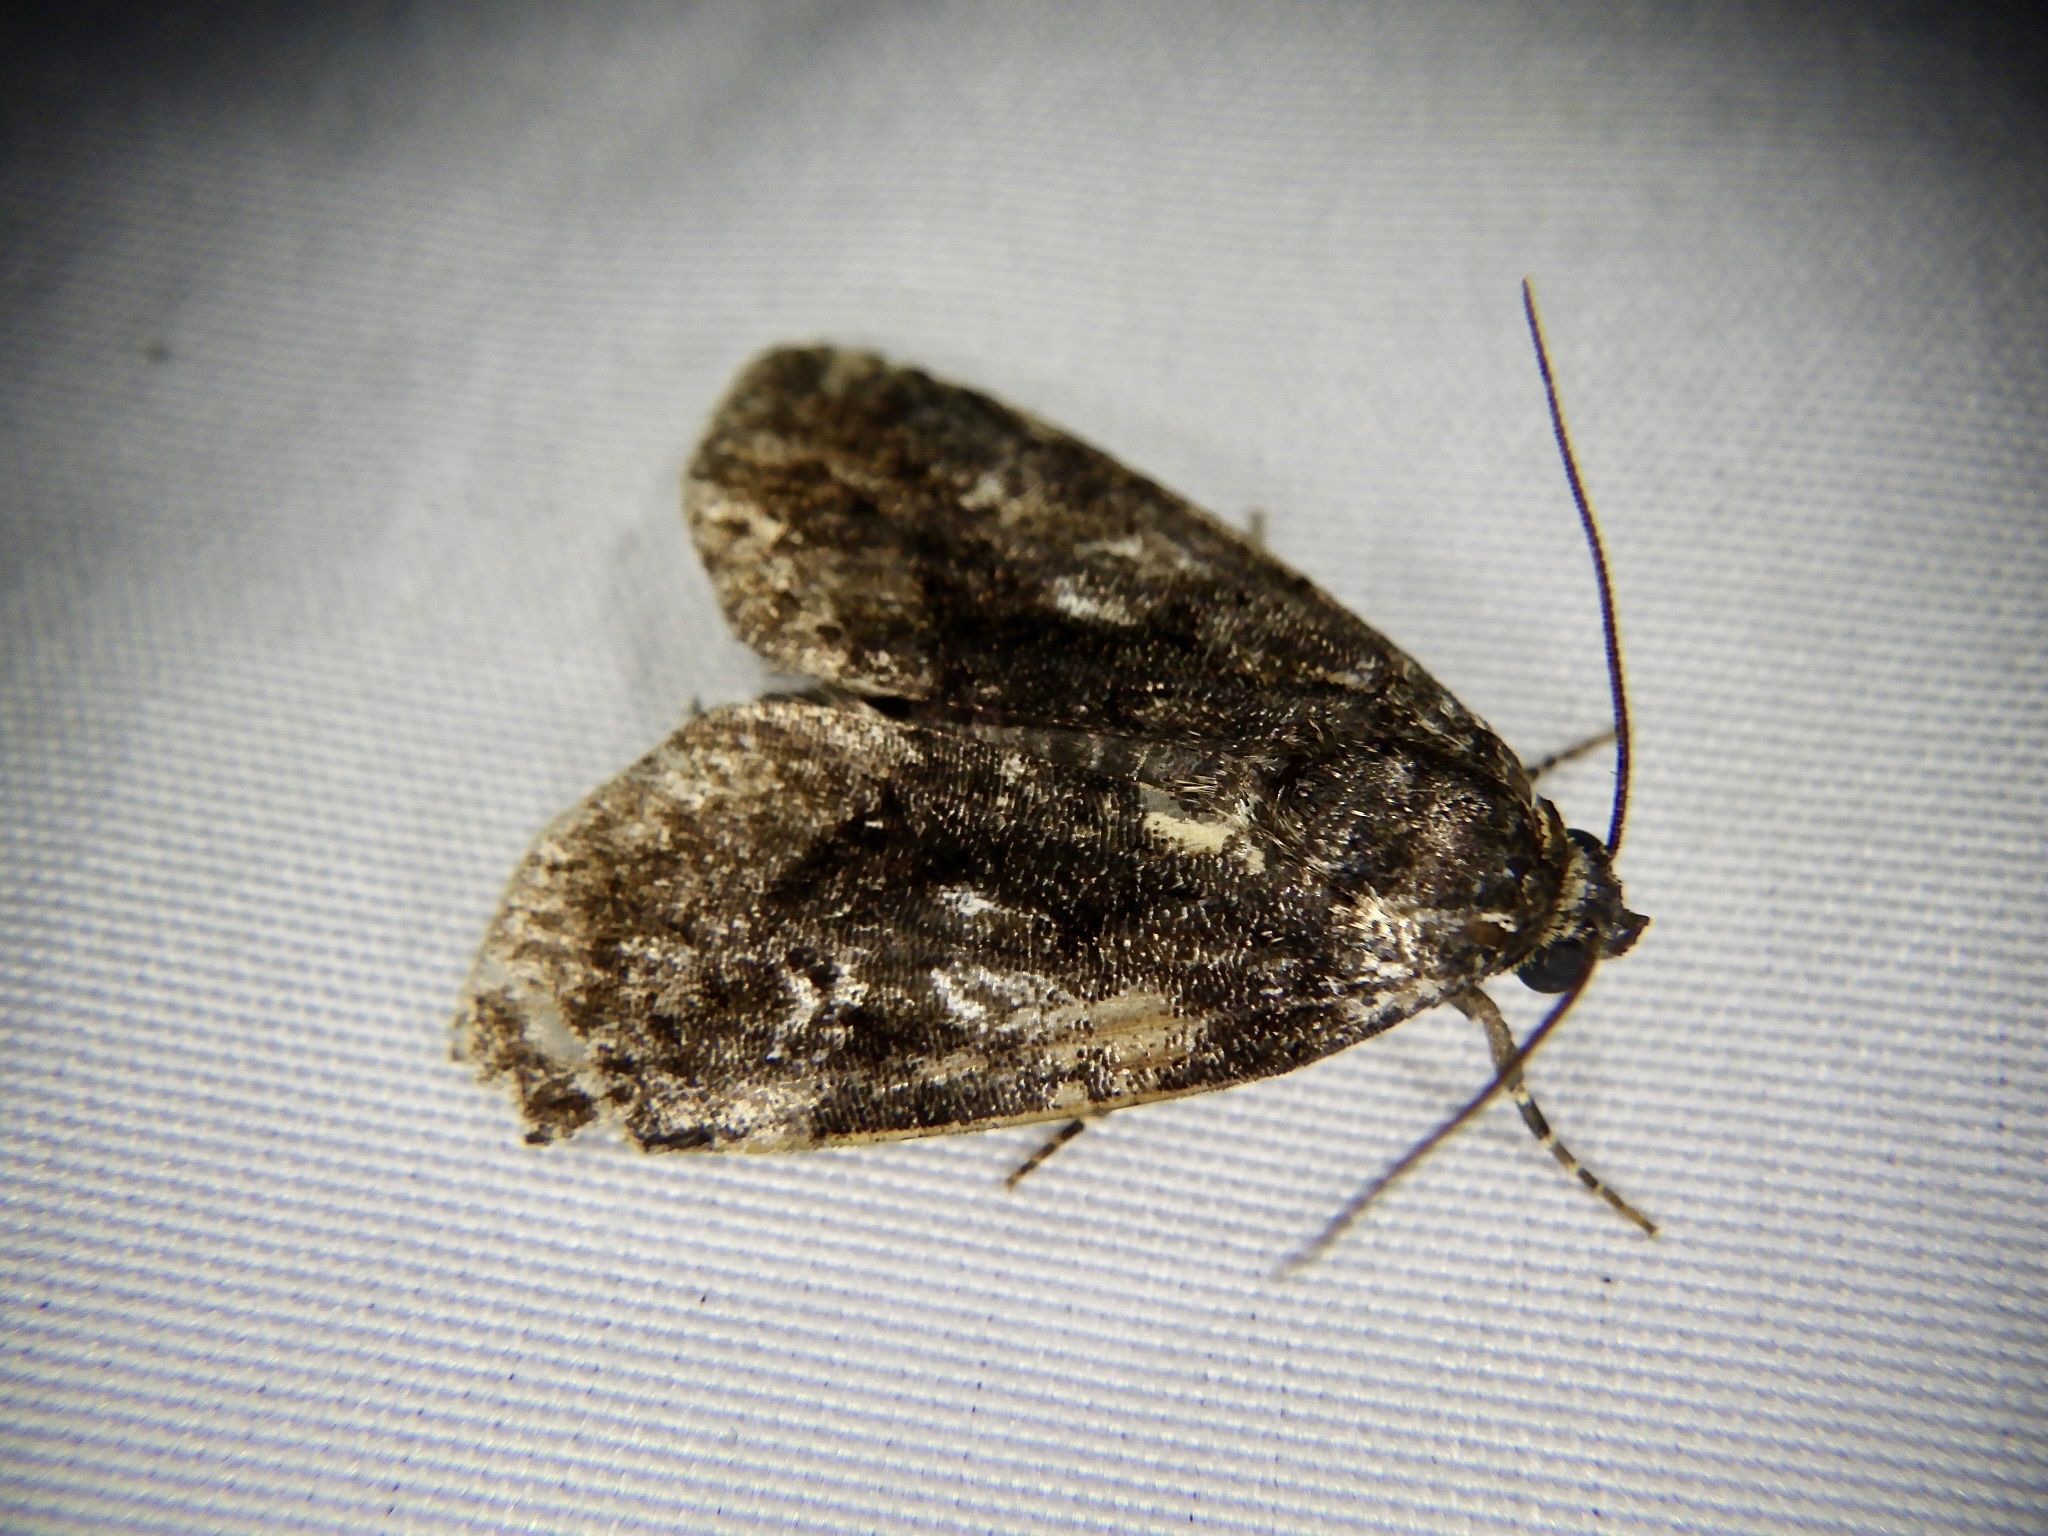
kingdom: Animalia
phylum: Arthropoda
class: Insecta
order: Lepidoptera
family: Noctuidae
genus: Gerbathodes
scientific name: Gerbathodes lichenodes
